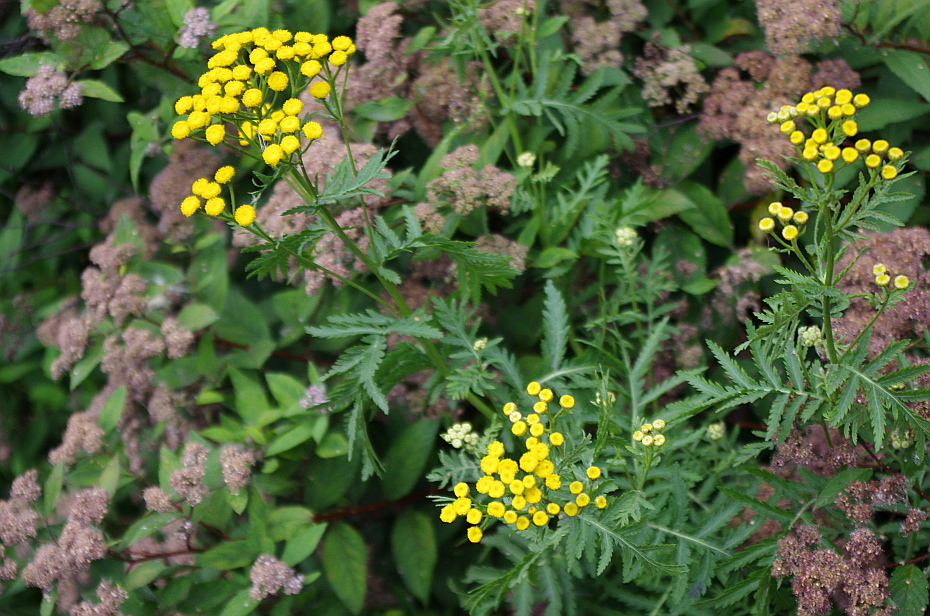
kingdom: Plantae
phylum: Tracheophyta
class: Magnoliopsida
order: Asterales
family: Asteraceae
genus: Tanacetum
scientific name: Tanacetum vulgare
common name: Common tansy
